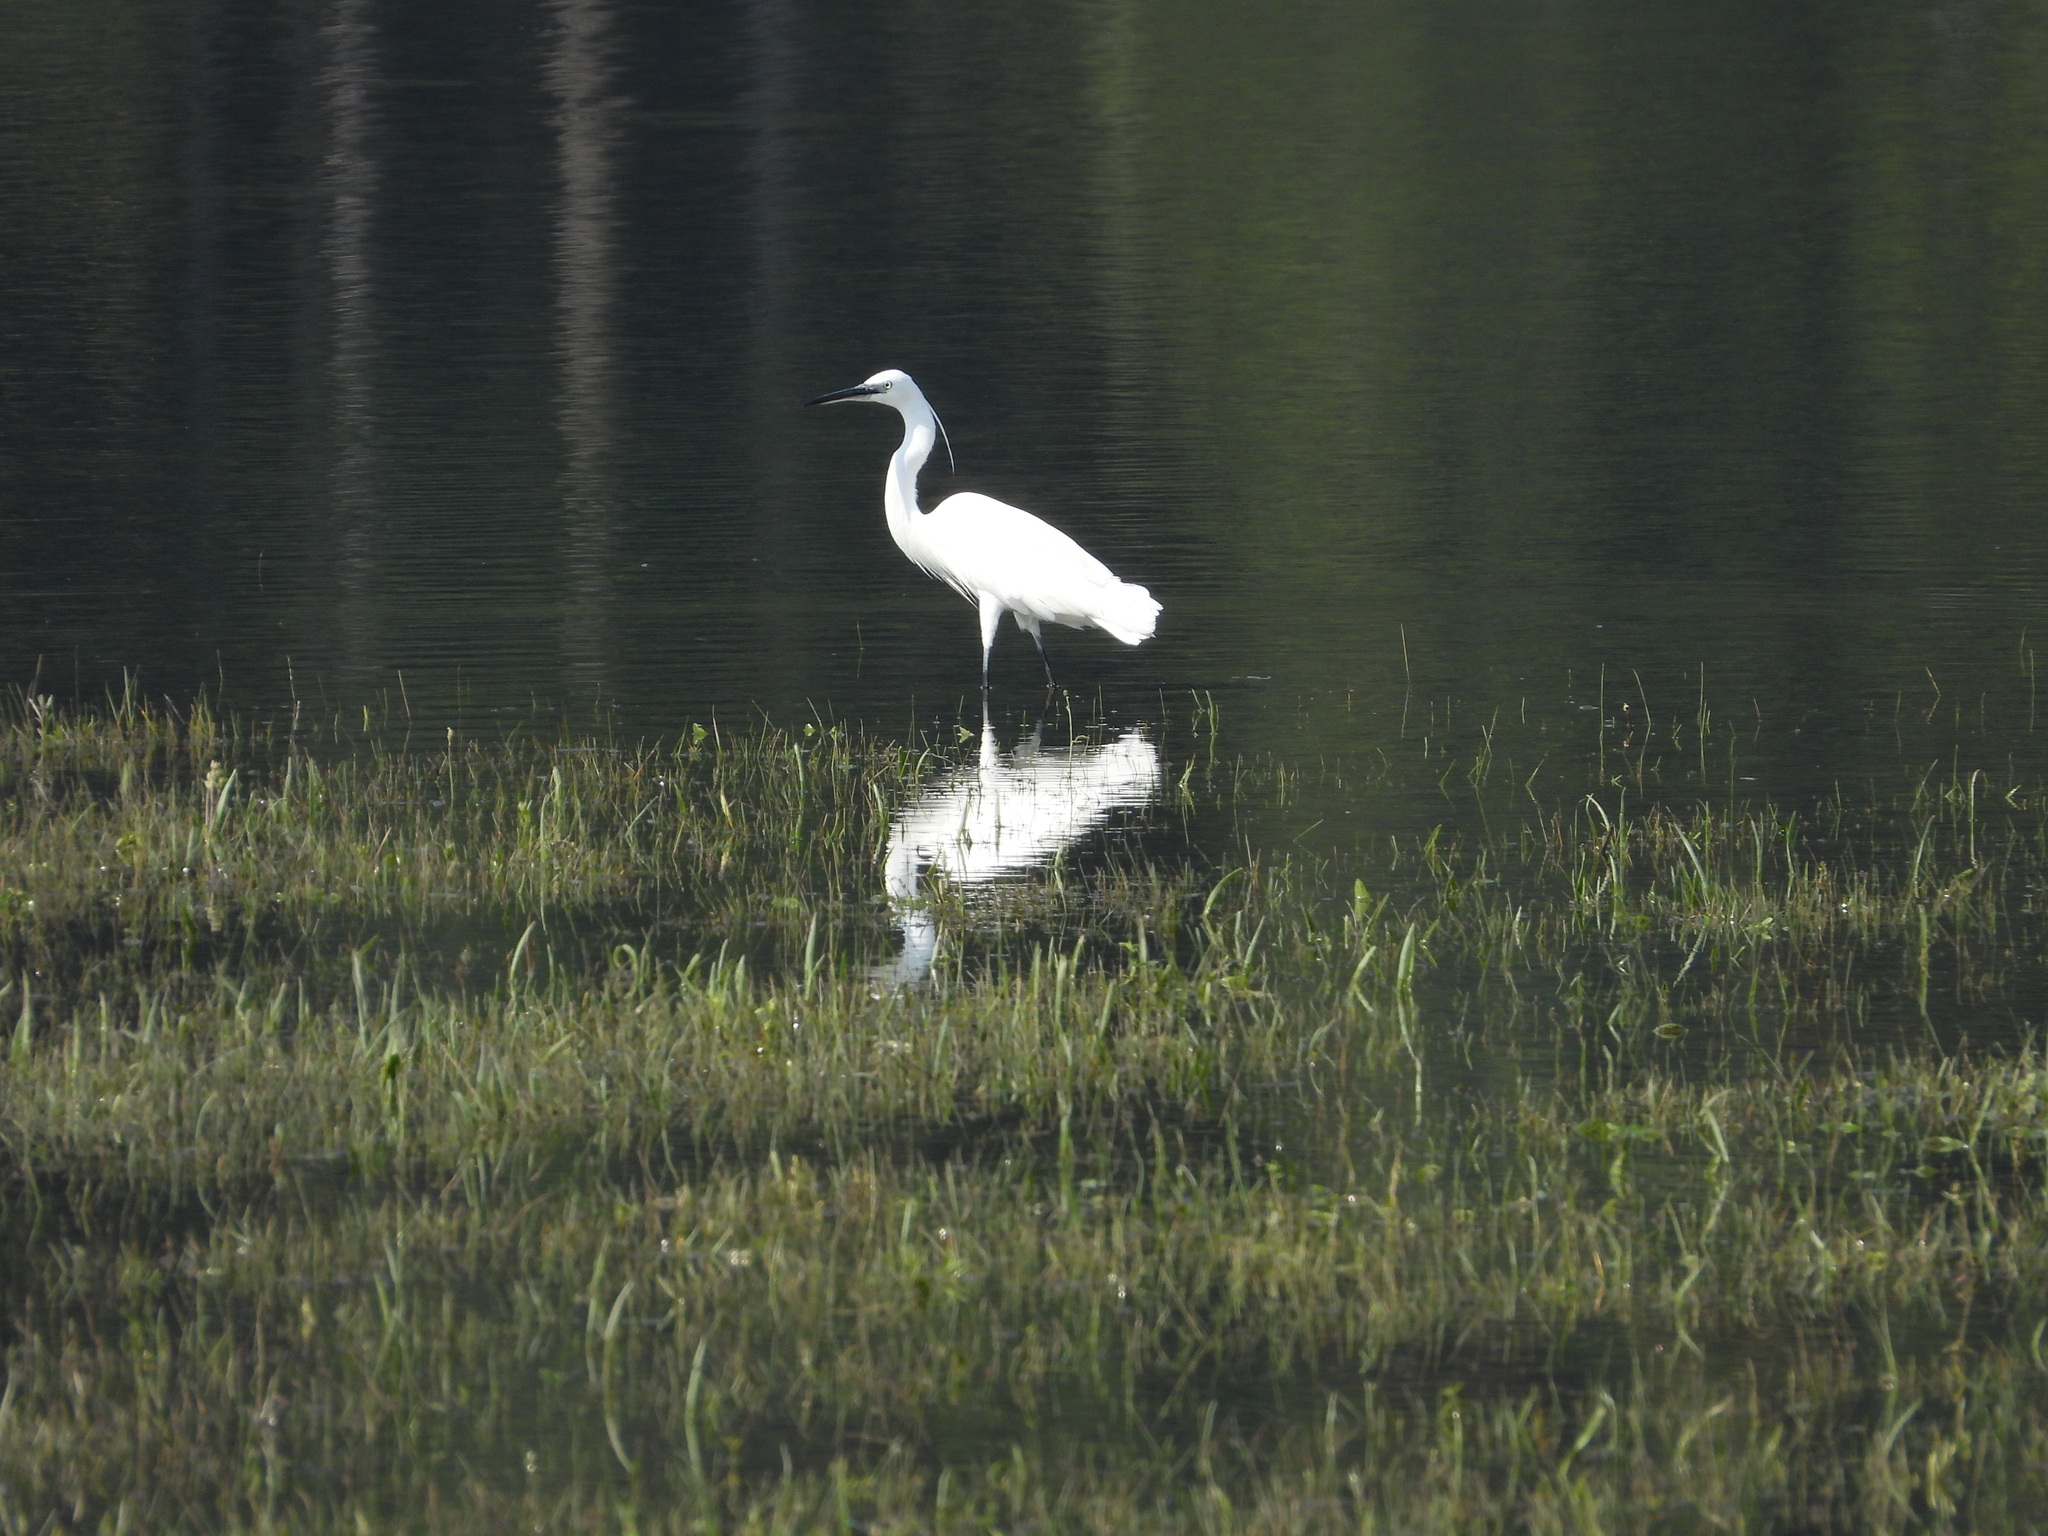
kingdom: Animalia
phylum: Chordata
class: Aves
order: Pelecaniformes
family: Ardeidae
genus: Ardea
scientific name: Ardea alba
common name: Great egret
